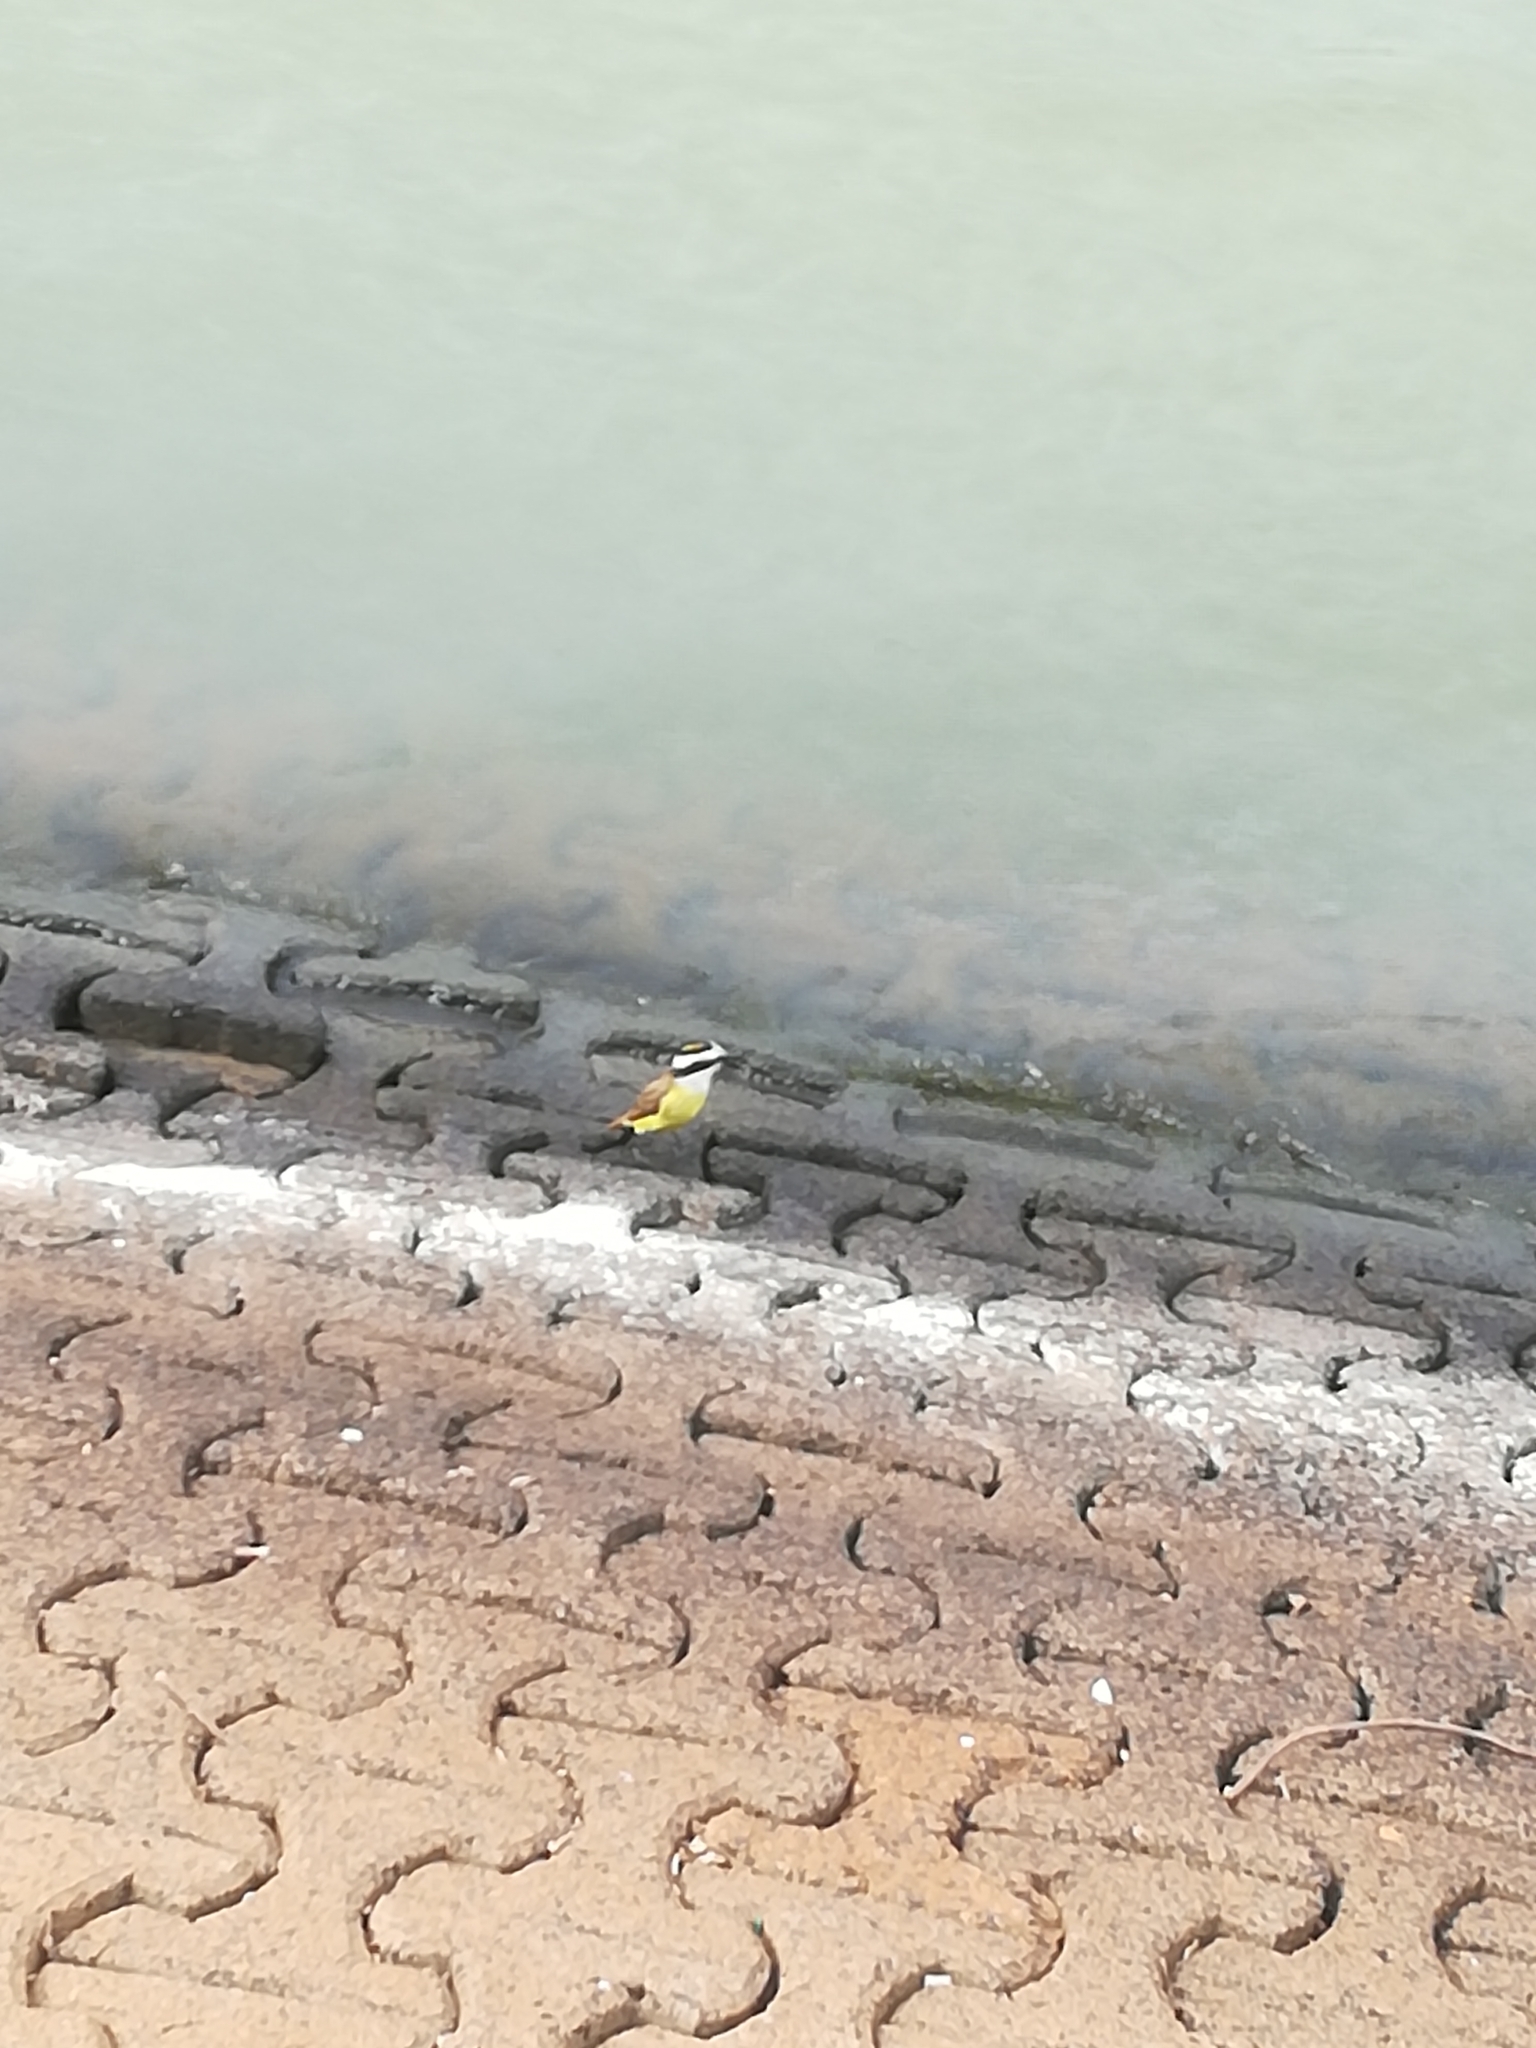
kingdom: Animalia
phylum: Chordata
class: Aves
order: Passeriformes
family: Tyrannidae
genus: Pitangus
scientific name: Pitangus sulphuratus
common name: Great kiskadee
